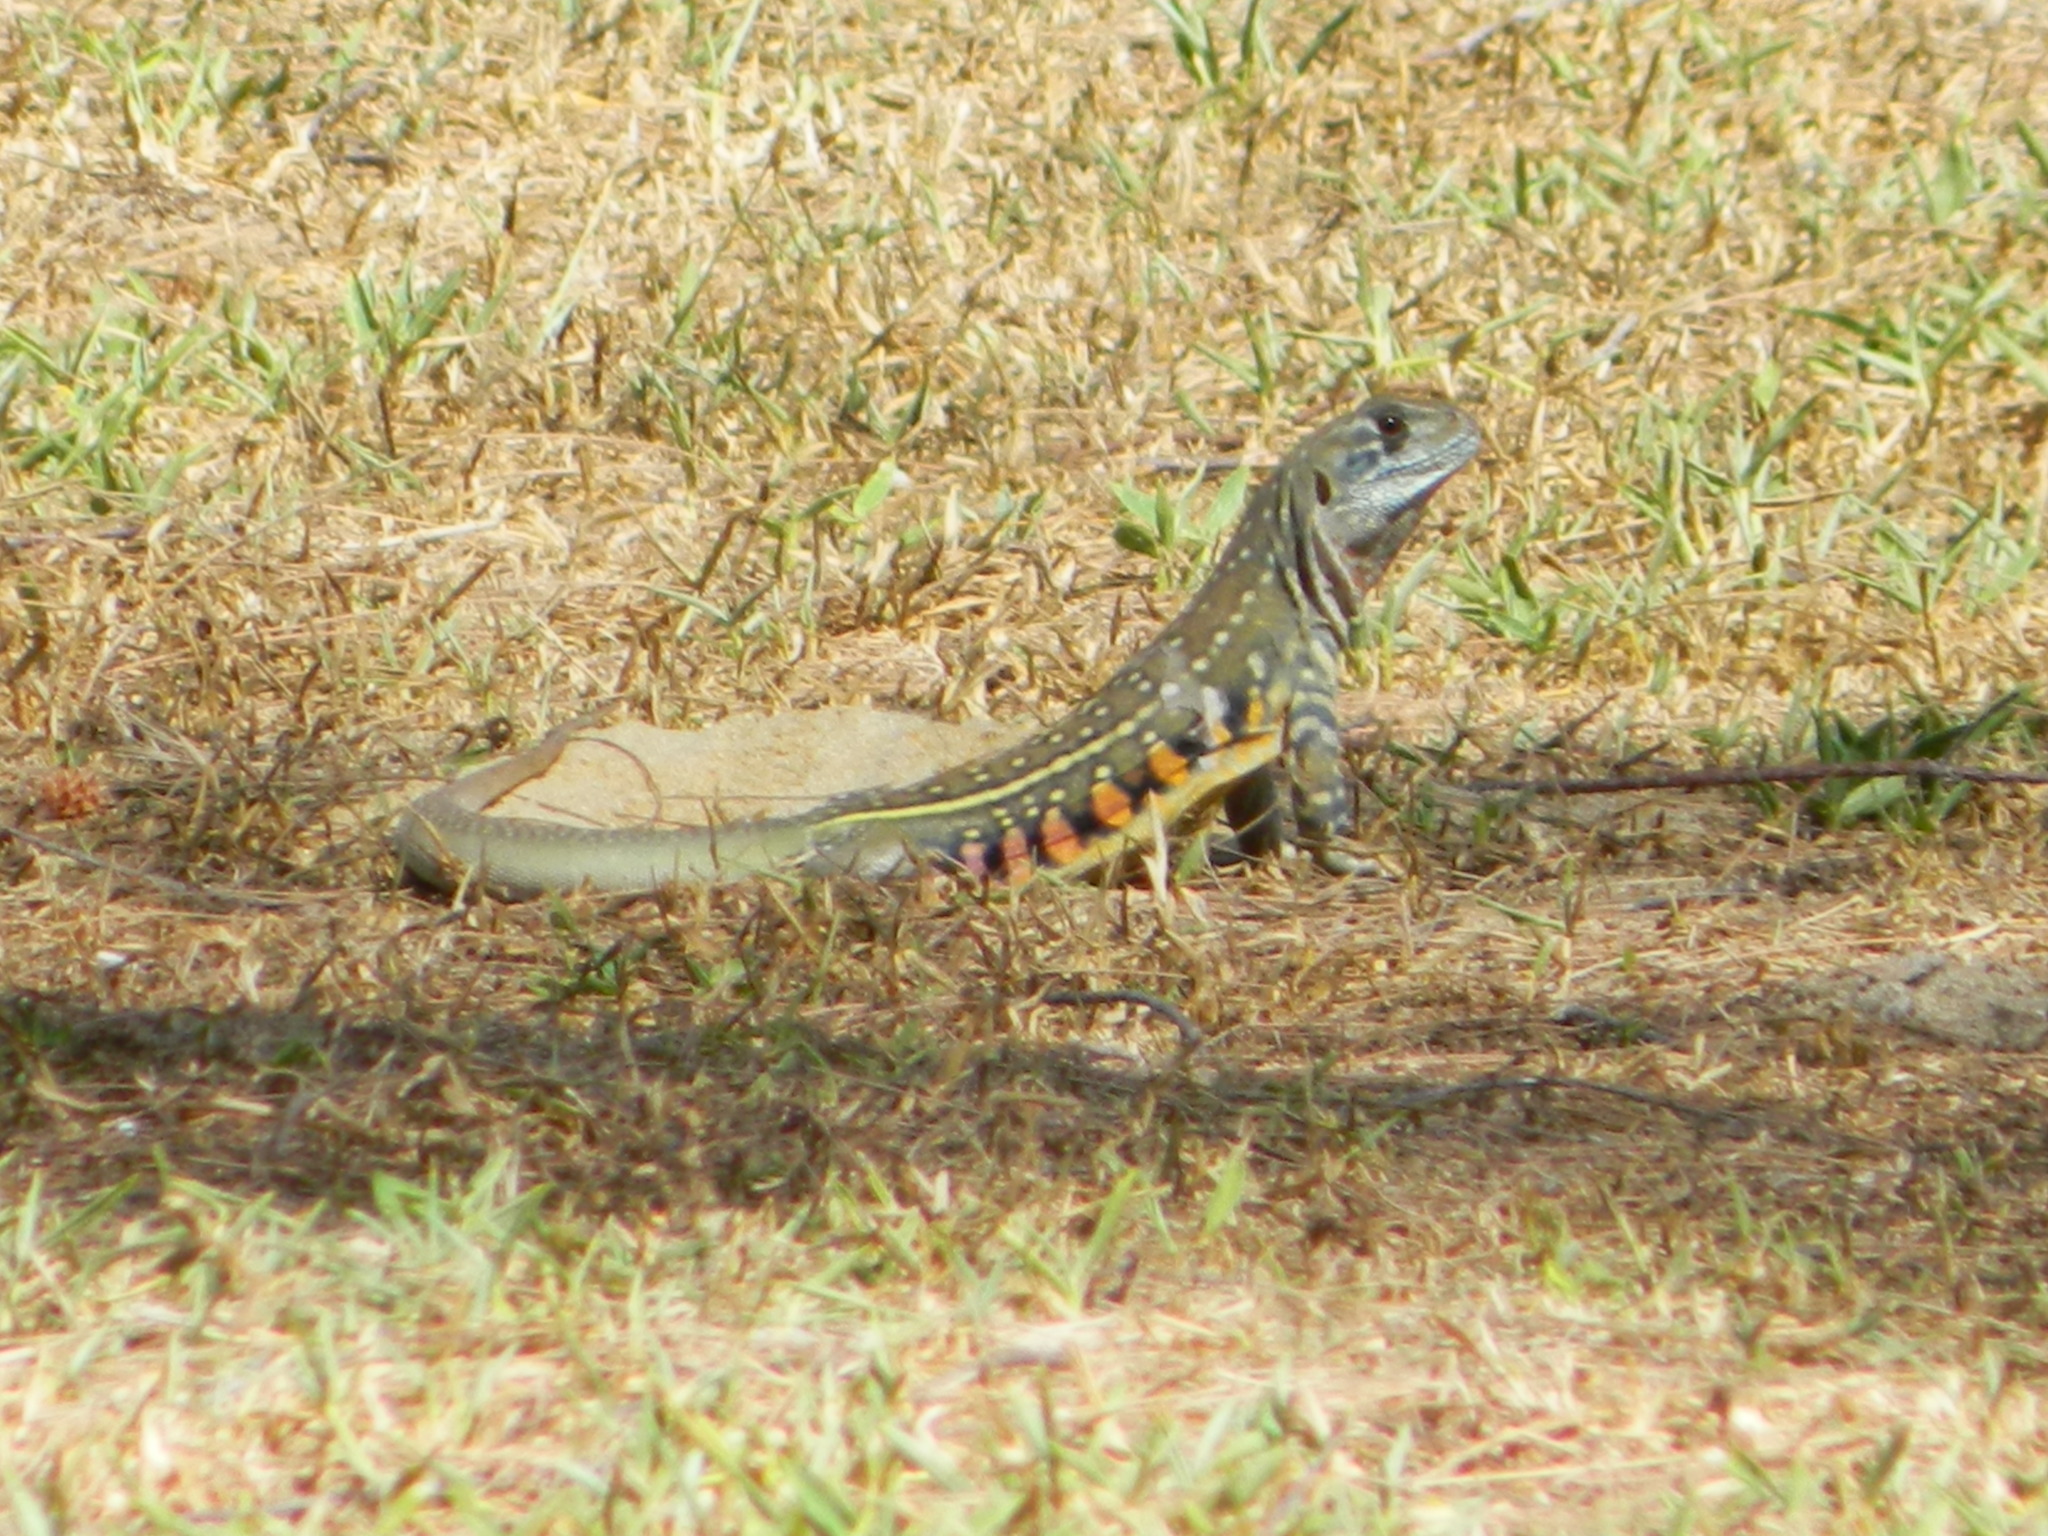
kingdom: Animalia
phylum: Chordata
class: Squamata
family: Agamidae
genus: Leiolepis
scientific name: Leiolepis belliana
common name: Common butterfly lizard
